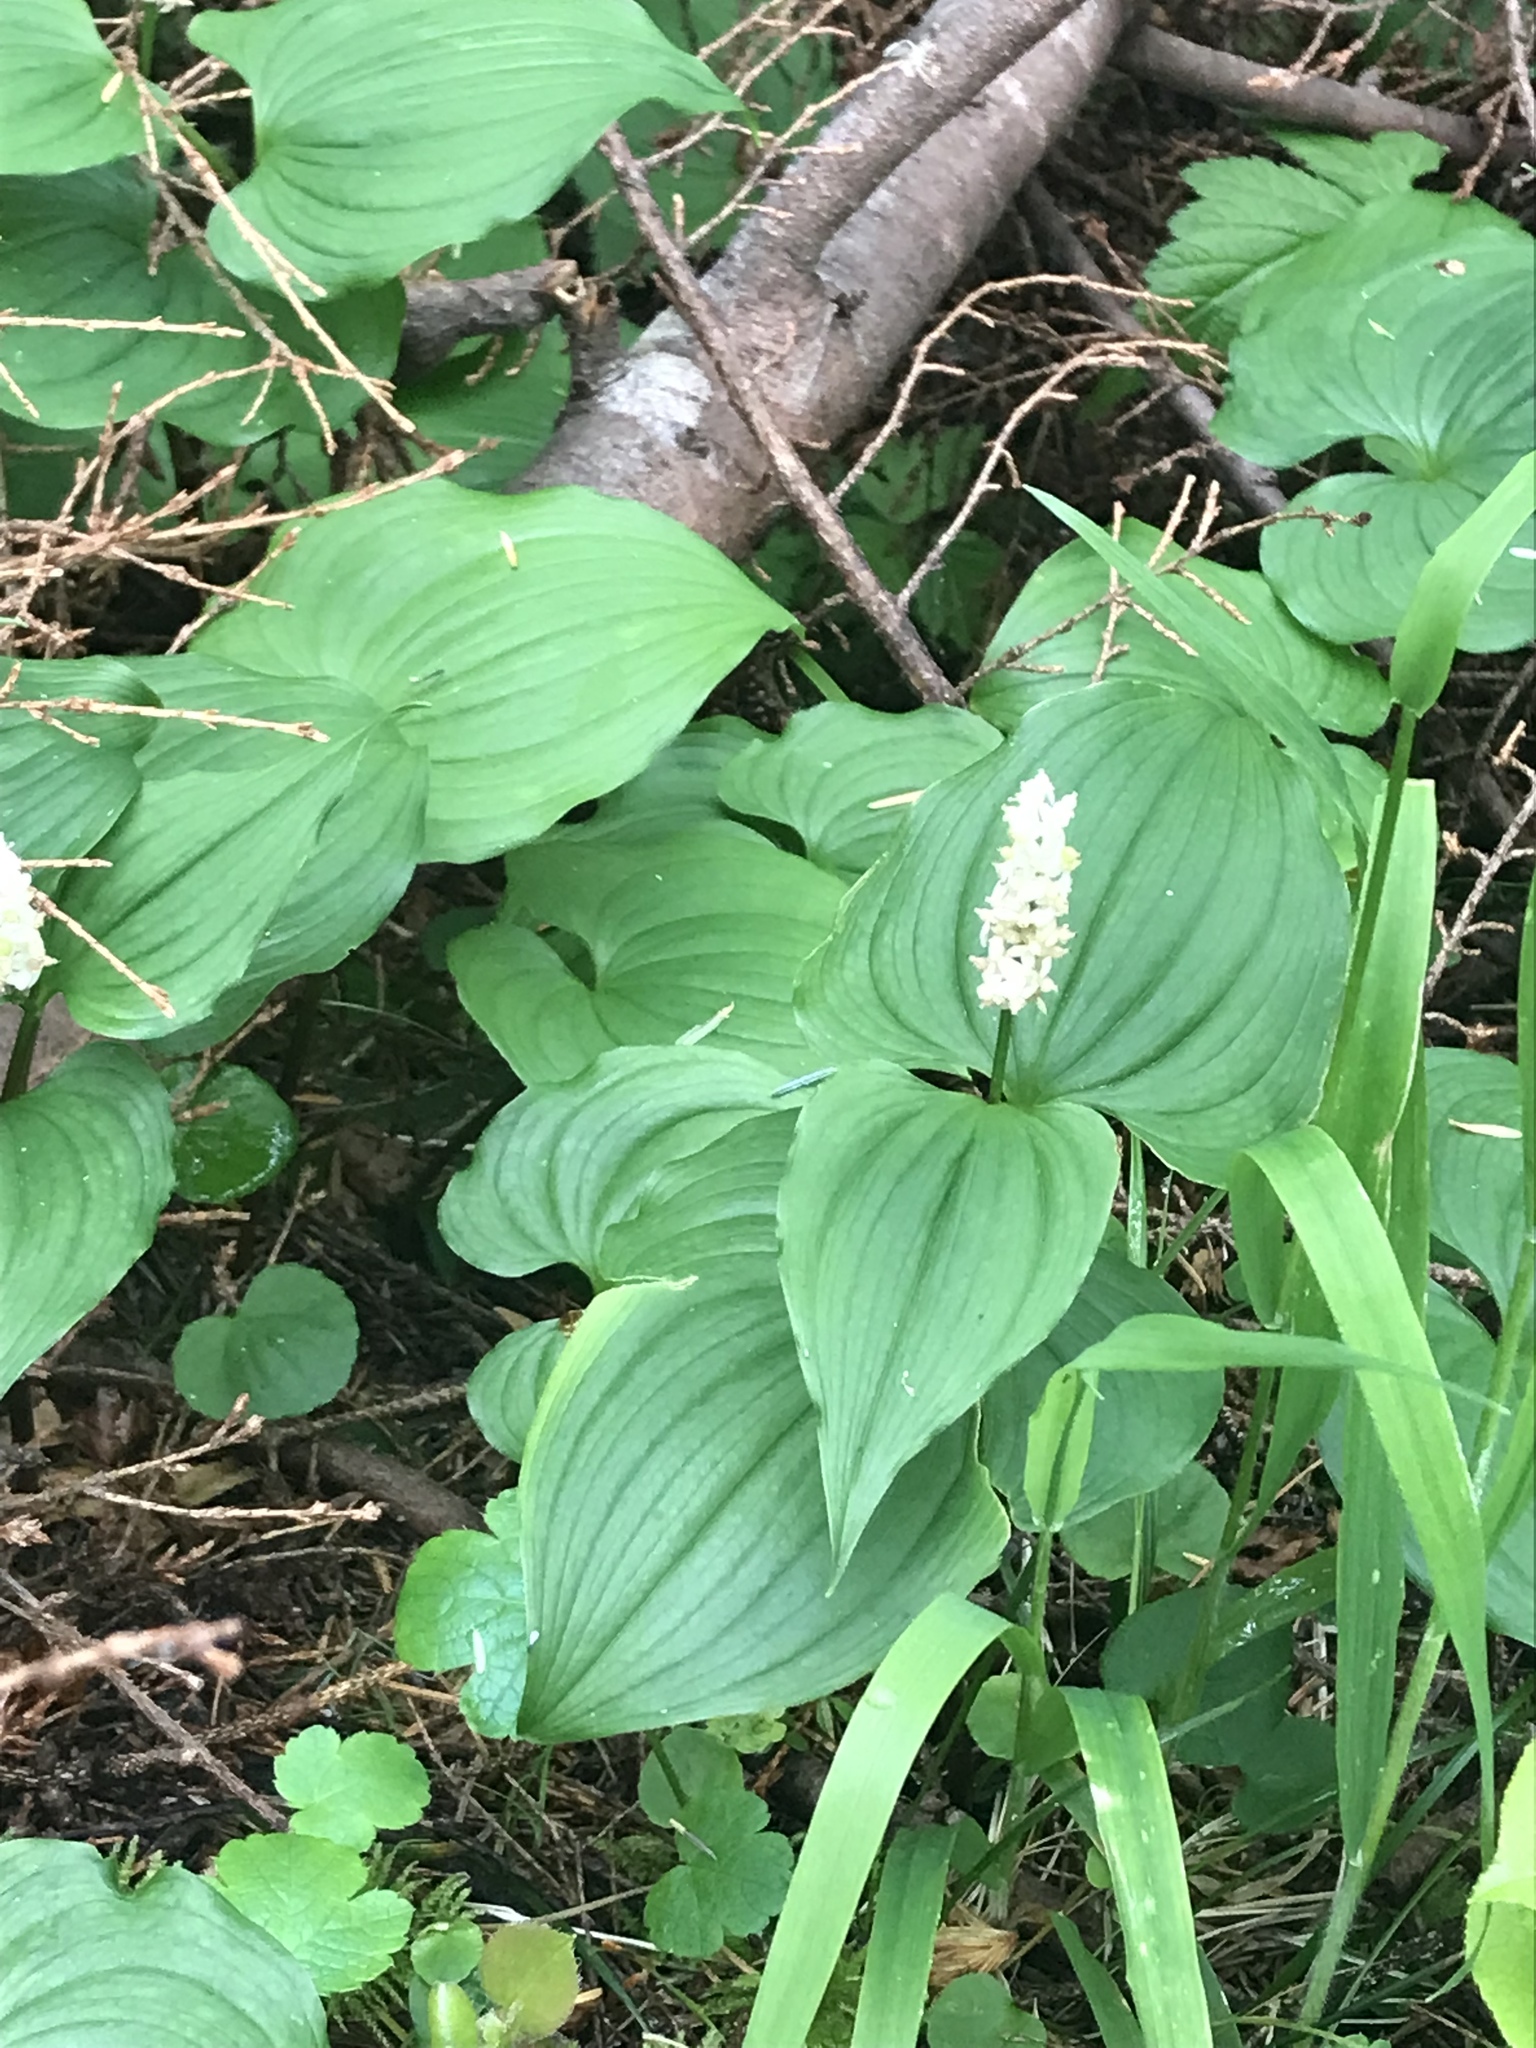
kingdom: Plantae
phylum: Tracheophyta
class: Liliopsida
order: Asparagales
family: Asparagaceae
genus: Maianthemum
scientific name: Maianthemum dilatatum
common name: False lily-of-the-valley
